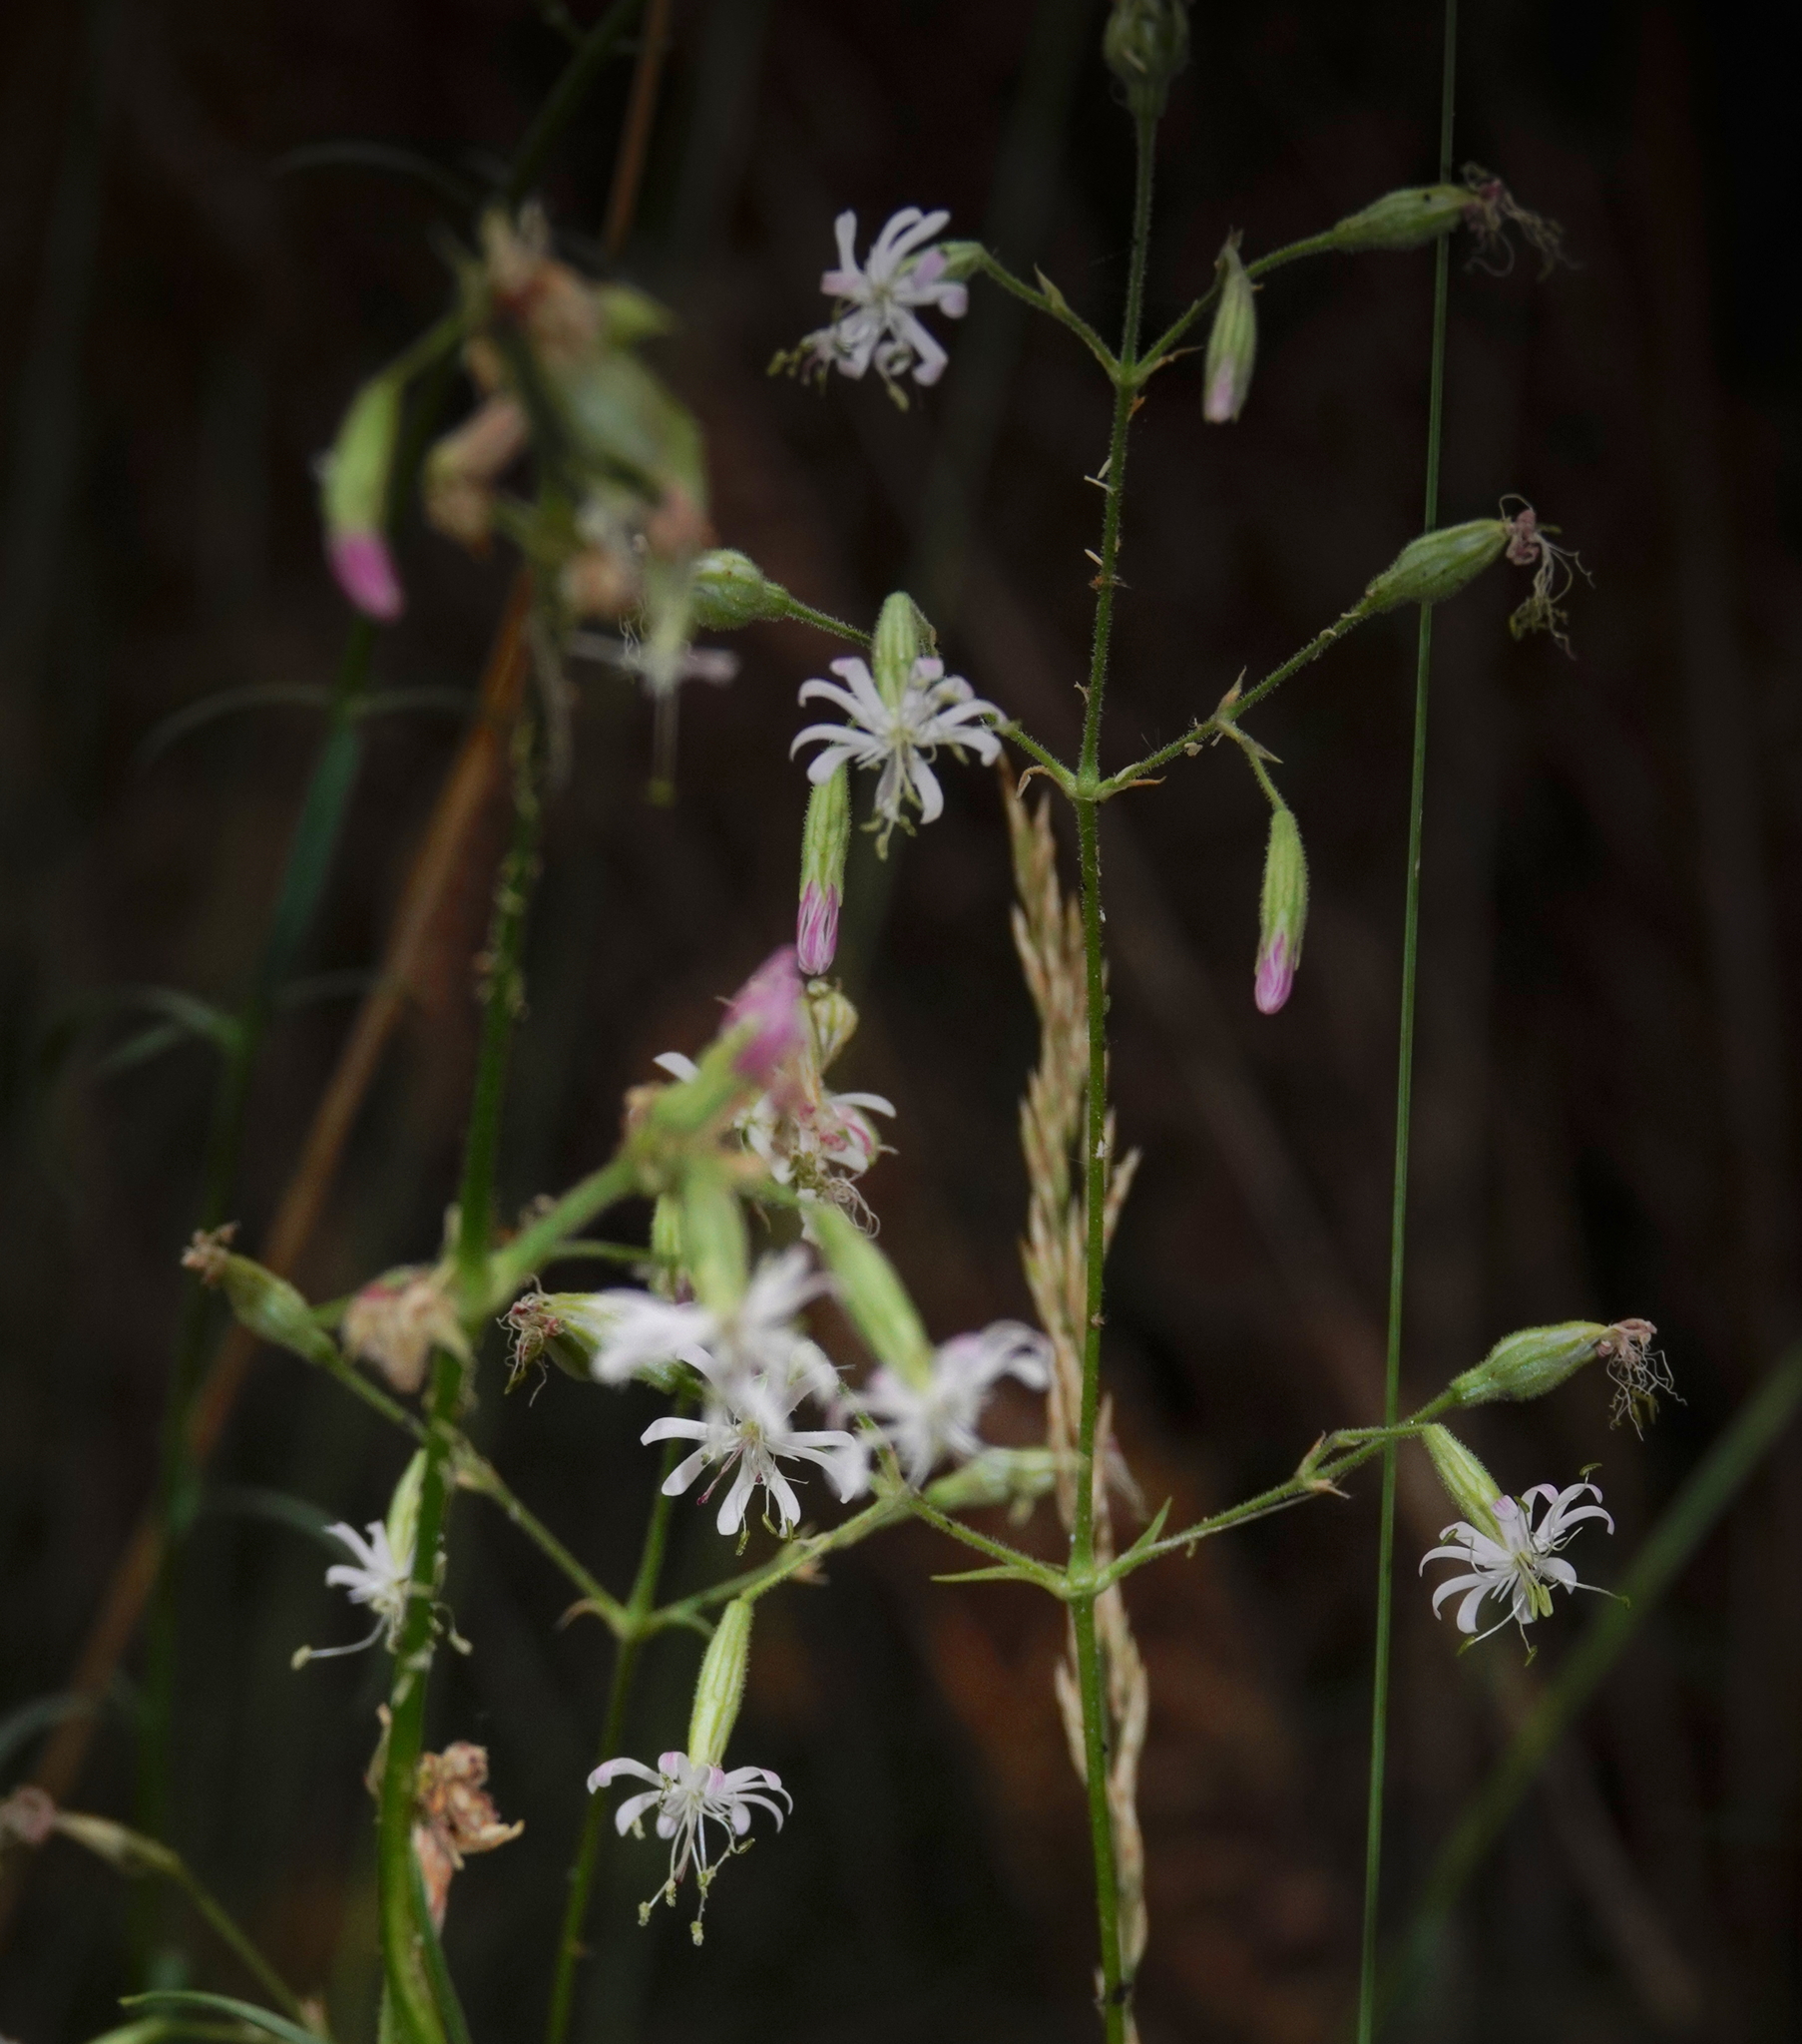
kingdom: Plantae
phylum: Tracheophyta
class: Magnoliopsida
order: Caryophyllales
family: Caryophyllaceae
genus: Silene
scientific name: Silene nutans
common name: Nottingham catchfly
